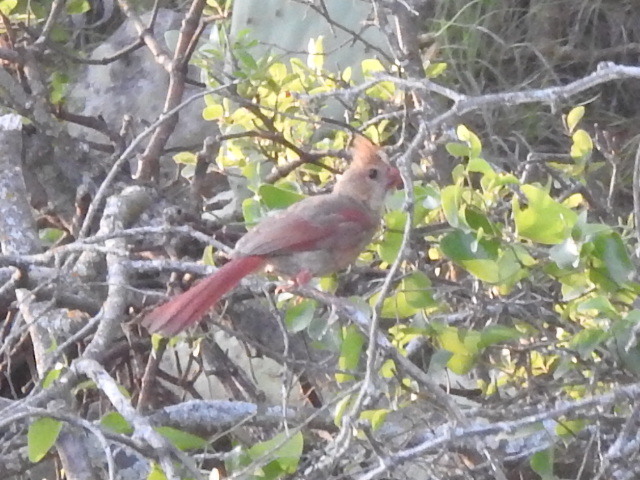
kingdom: Animalia
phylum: Chordata
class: Aves
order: Passeriformes
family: Cardinalidae
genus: Cardinalis
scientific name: Cardinalis cardinalis
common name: Northern cardinal
